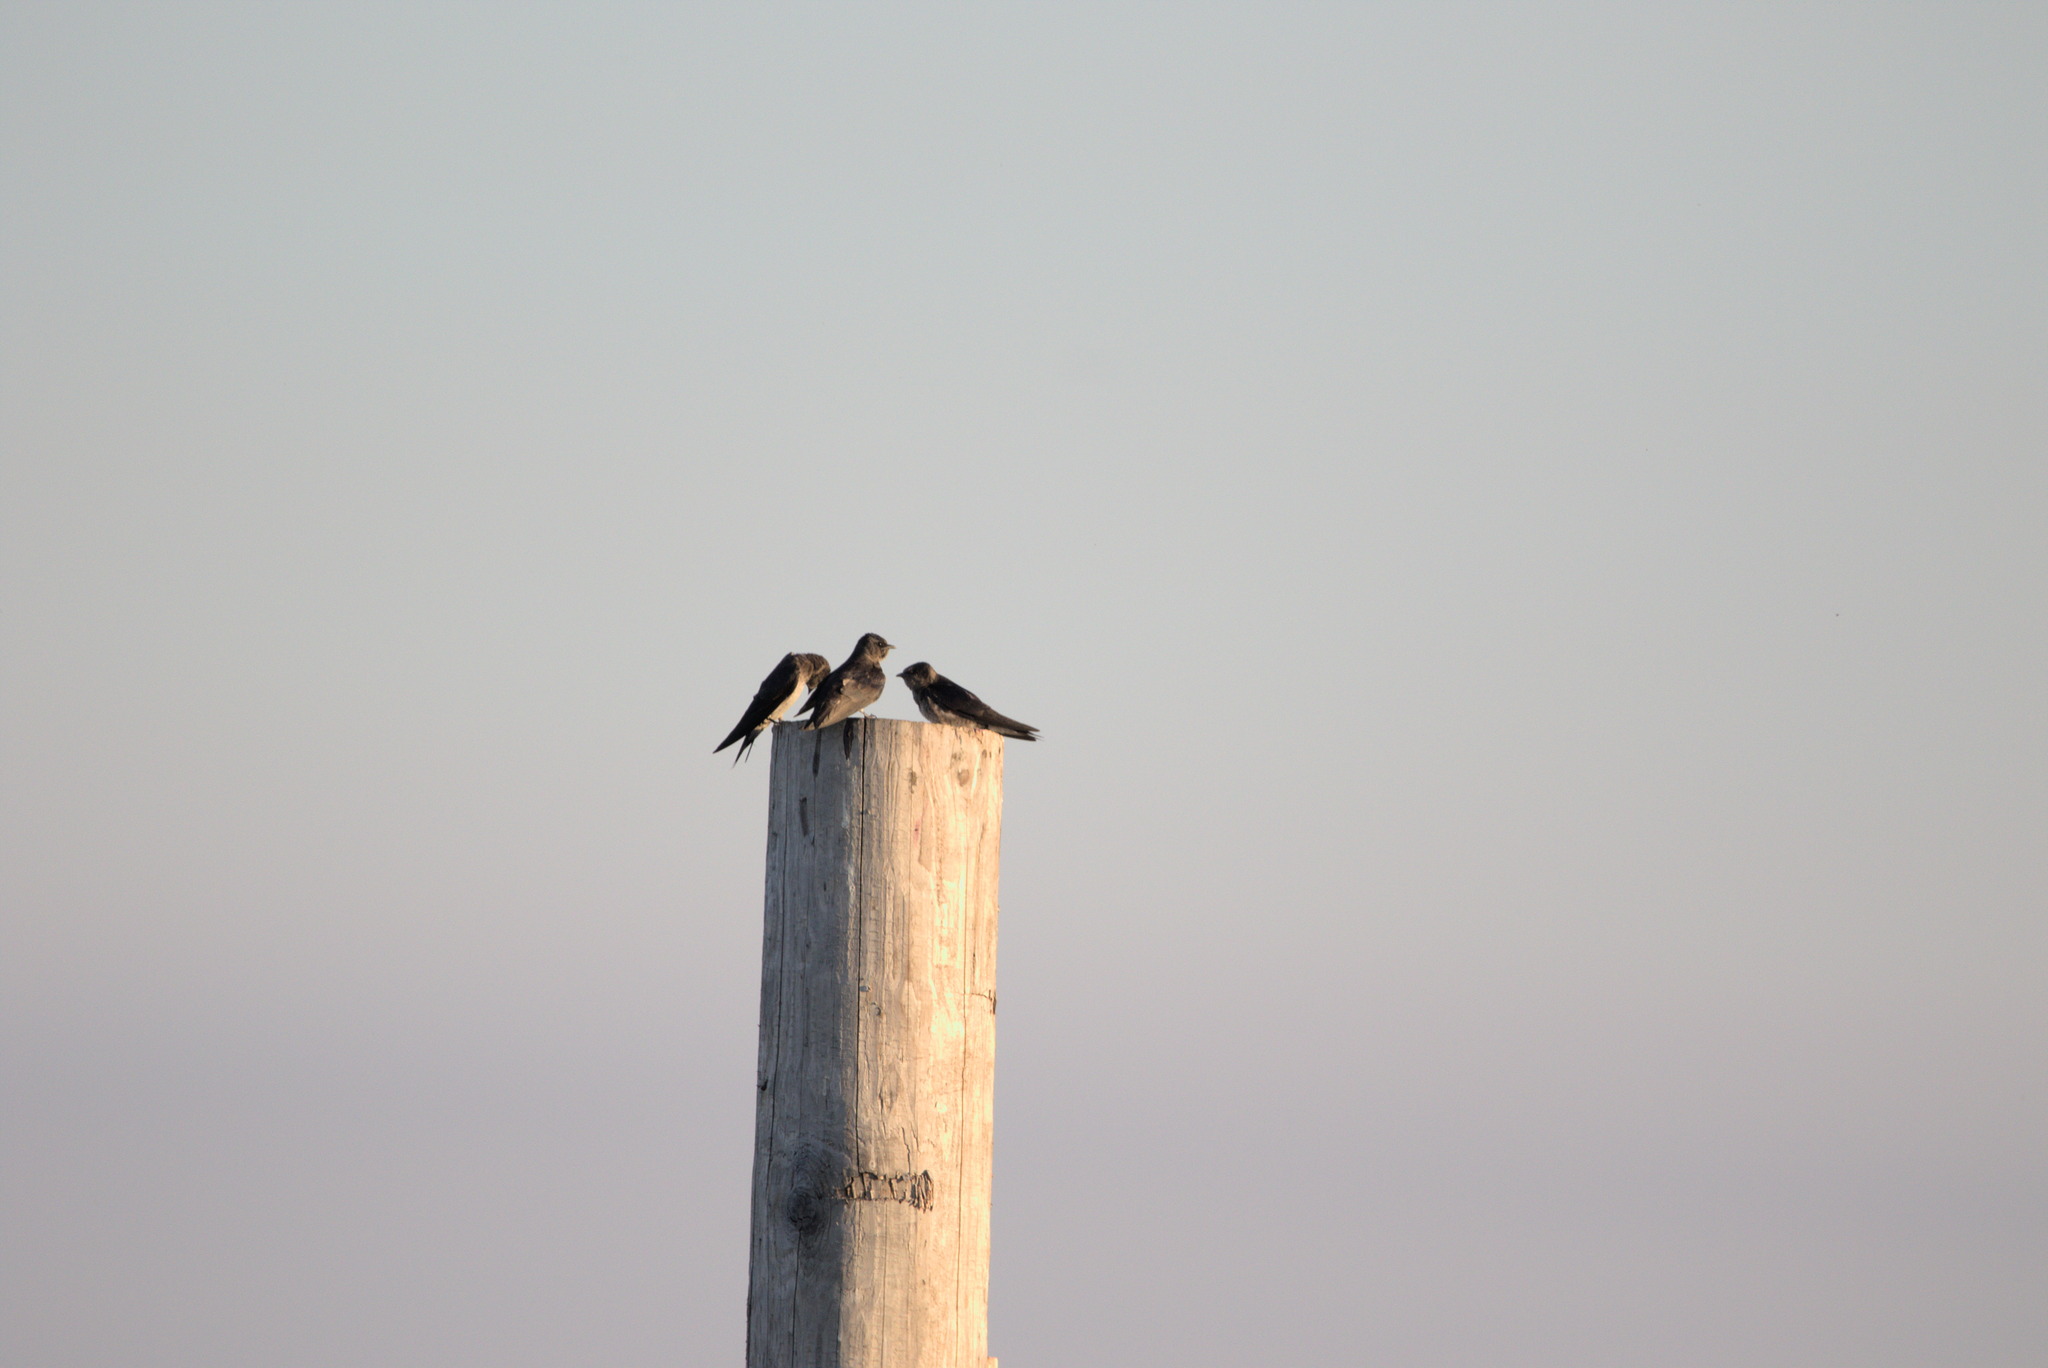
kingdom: Animalia
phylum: Chordata
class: Aves
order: Passeriformes
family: Hirundinidae
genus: Progne
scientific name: Progne subis
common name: Purple martin
